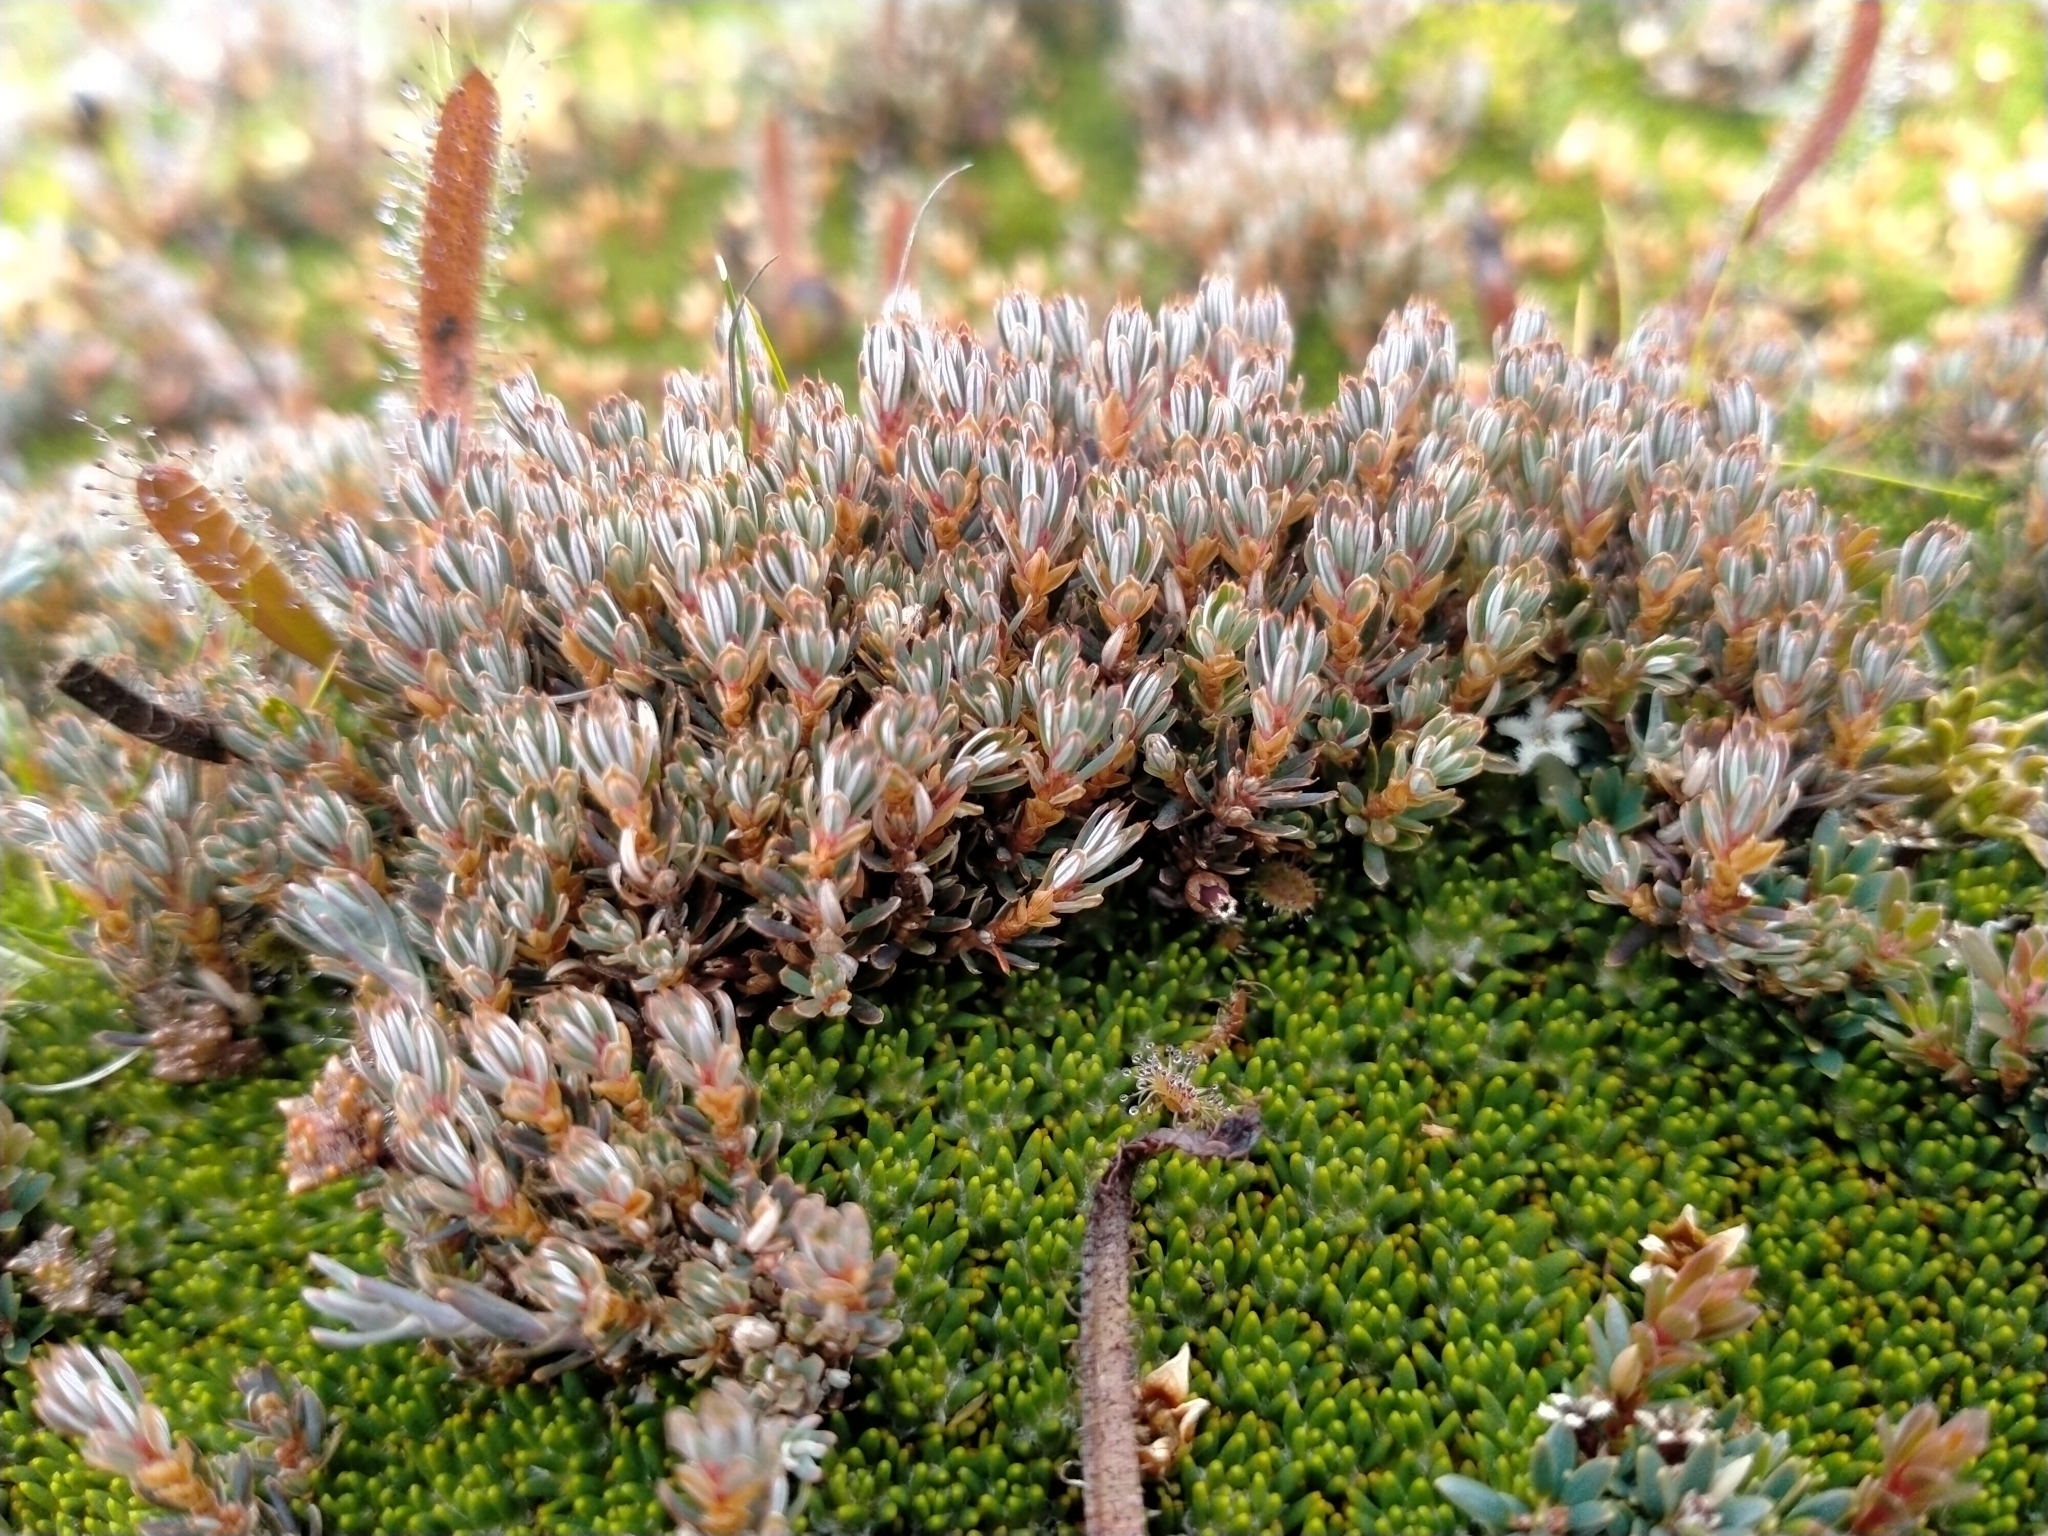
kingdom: Plantae
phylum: Tracheophyta
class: Magnoliopsida
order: Ericales
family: Ericaceae
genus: Montitega
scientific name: Montitega dealbata
